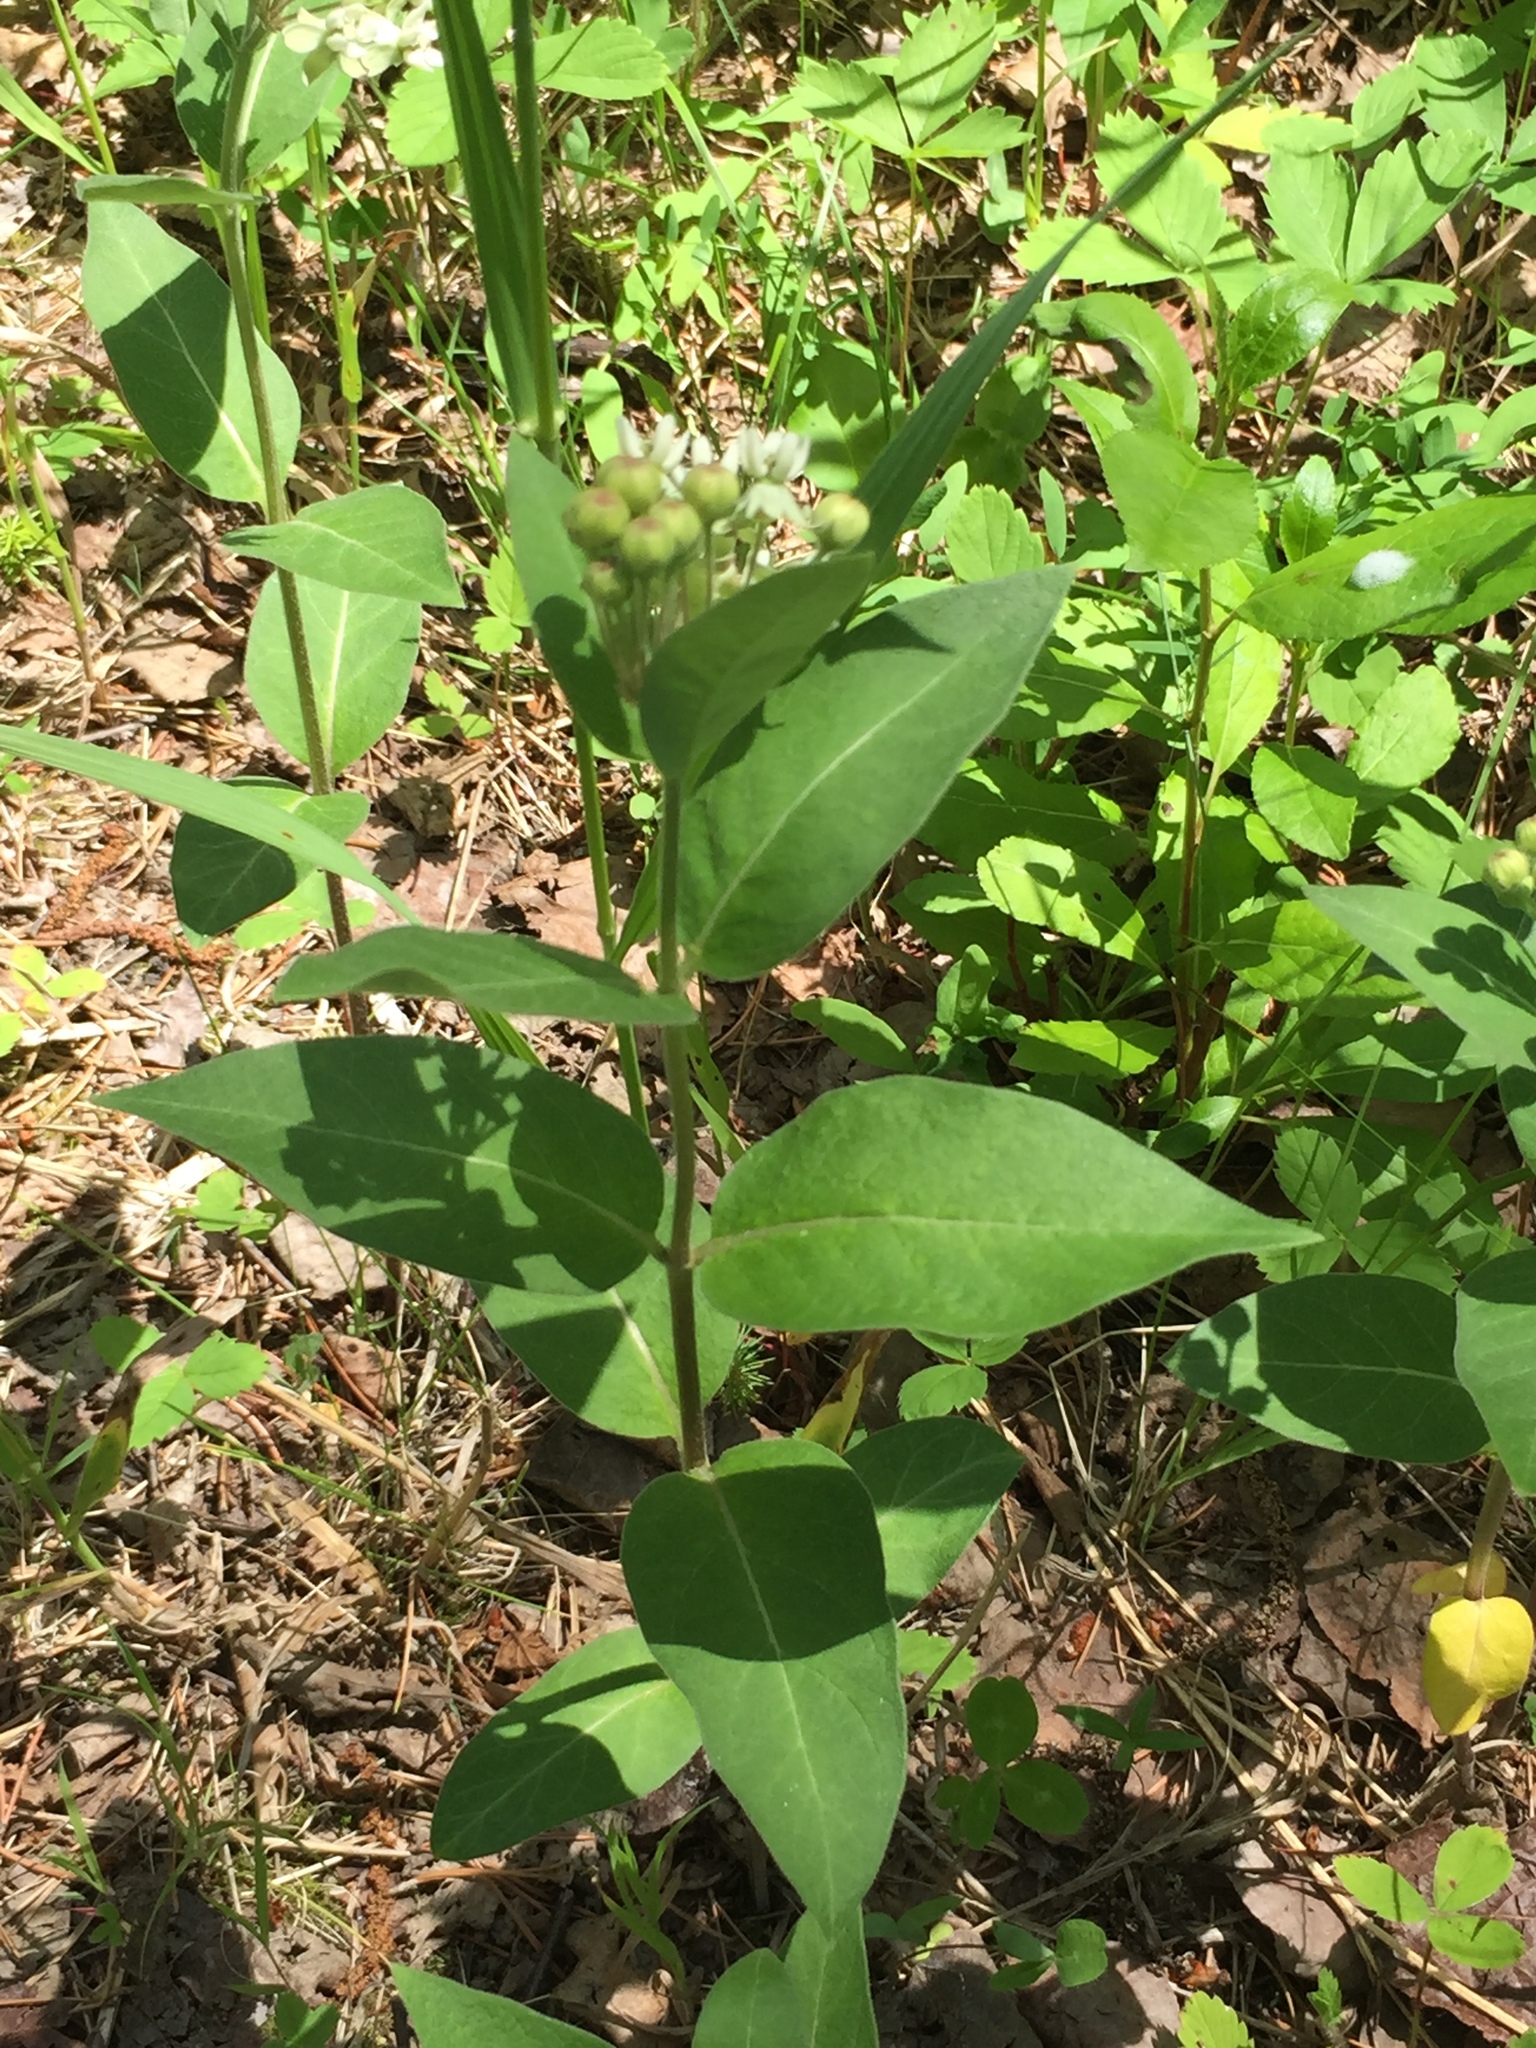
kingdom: Plantae
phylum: Tracheophyta
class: Magnoliopsida
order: Gentianales
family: Apocynaceae
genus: Asclepias
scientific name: Asclepias ovalifolia
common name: Dwarf milkweed
